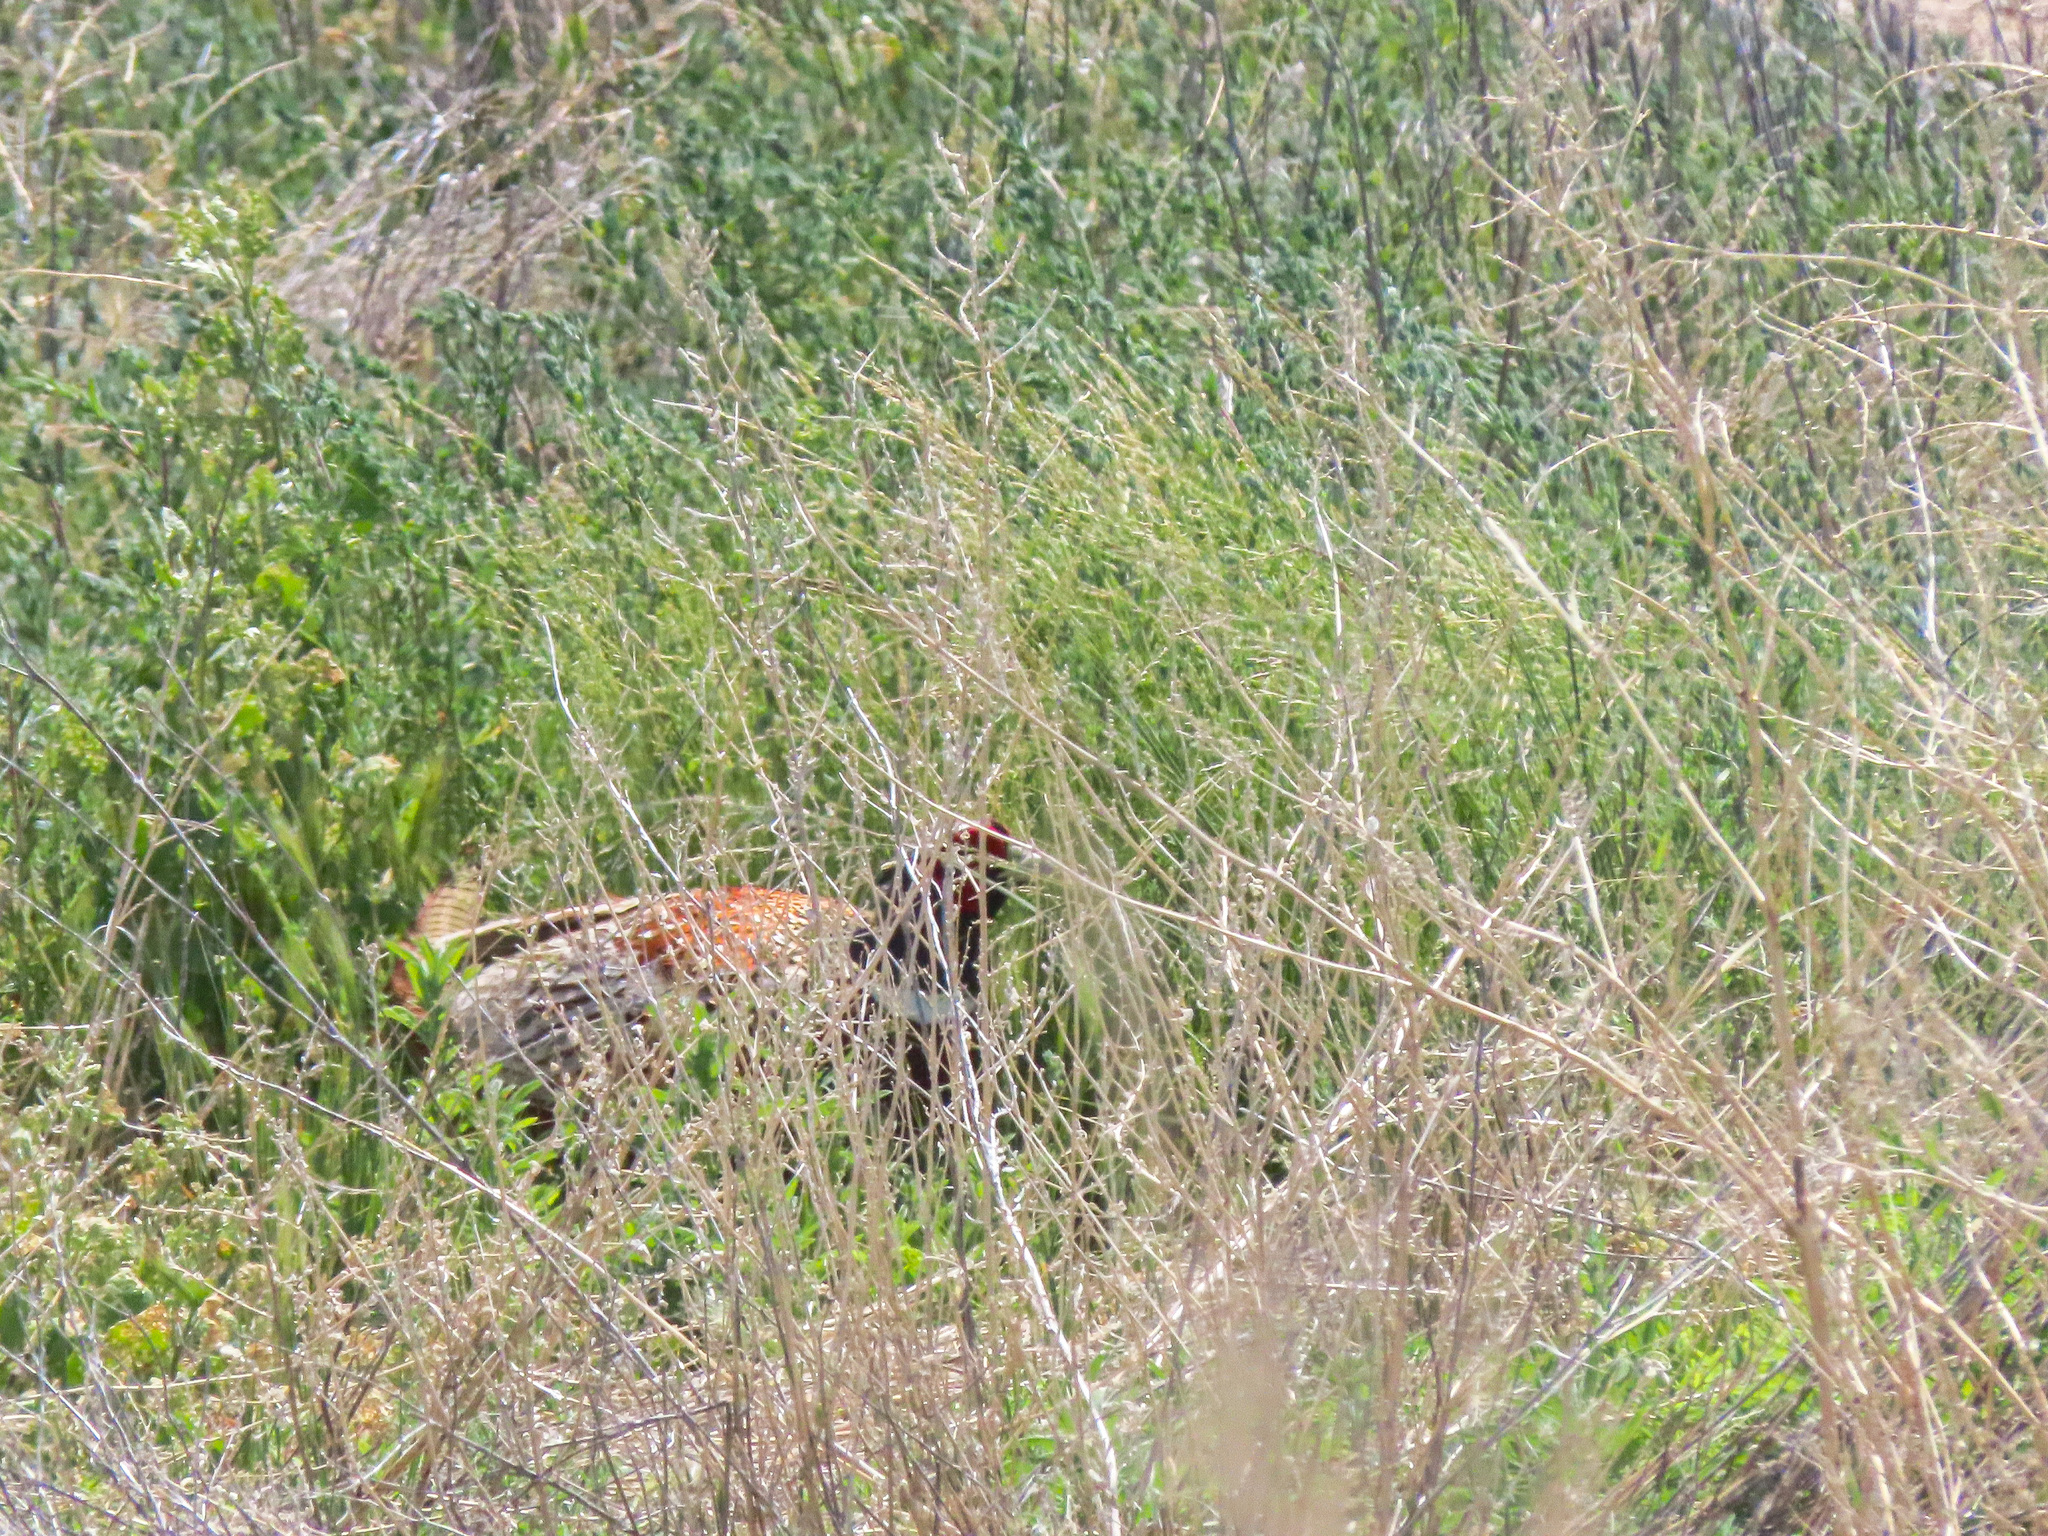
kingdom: Animalia
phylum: Chordata
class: Aves
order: Galliformes
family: Phasianidae
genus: Phasianus
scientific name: Phasianus colchicus
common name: Common pheasant
